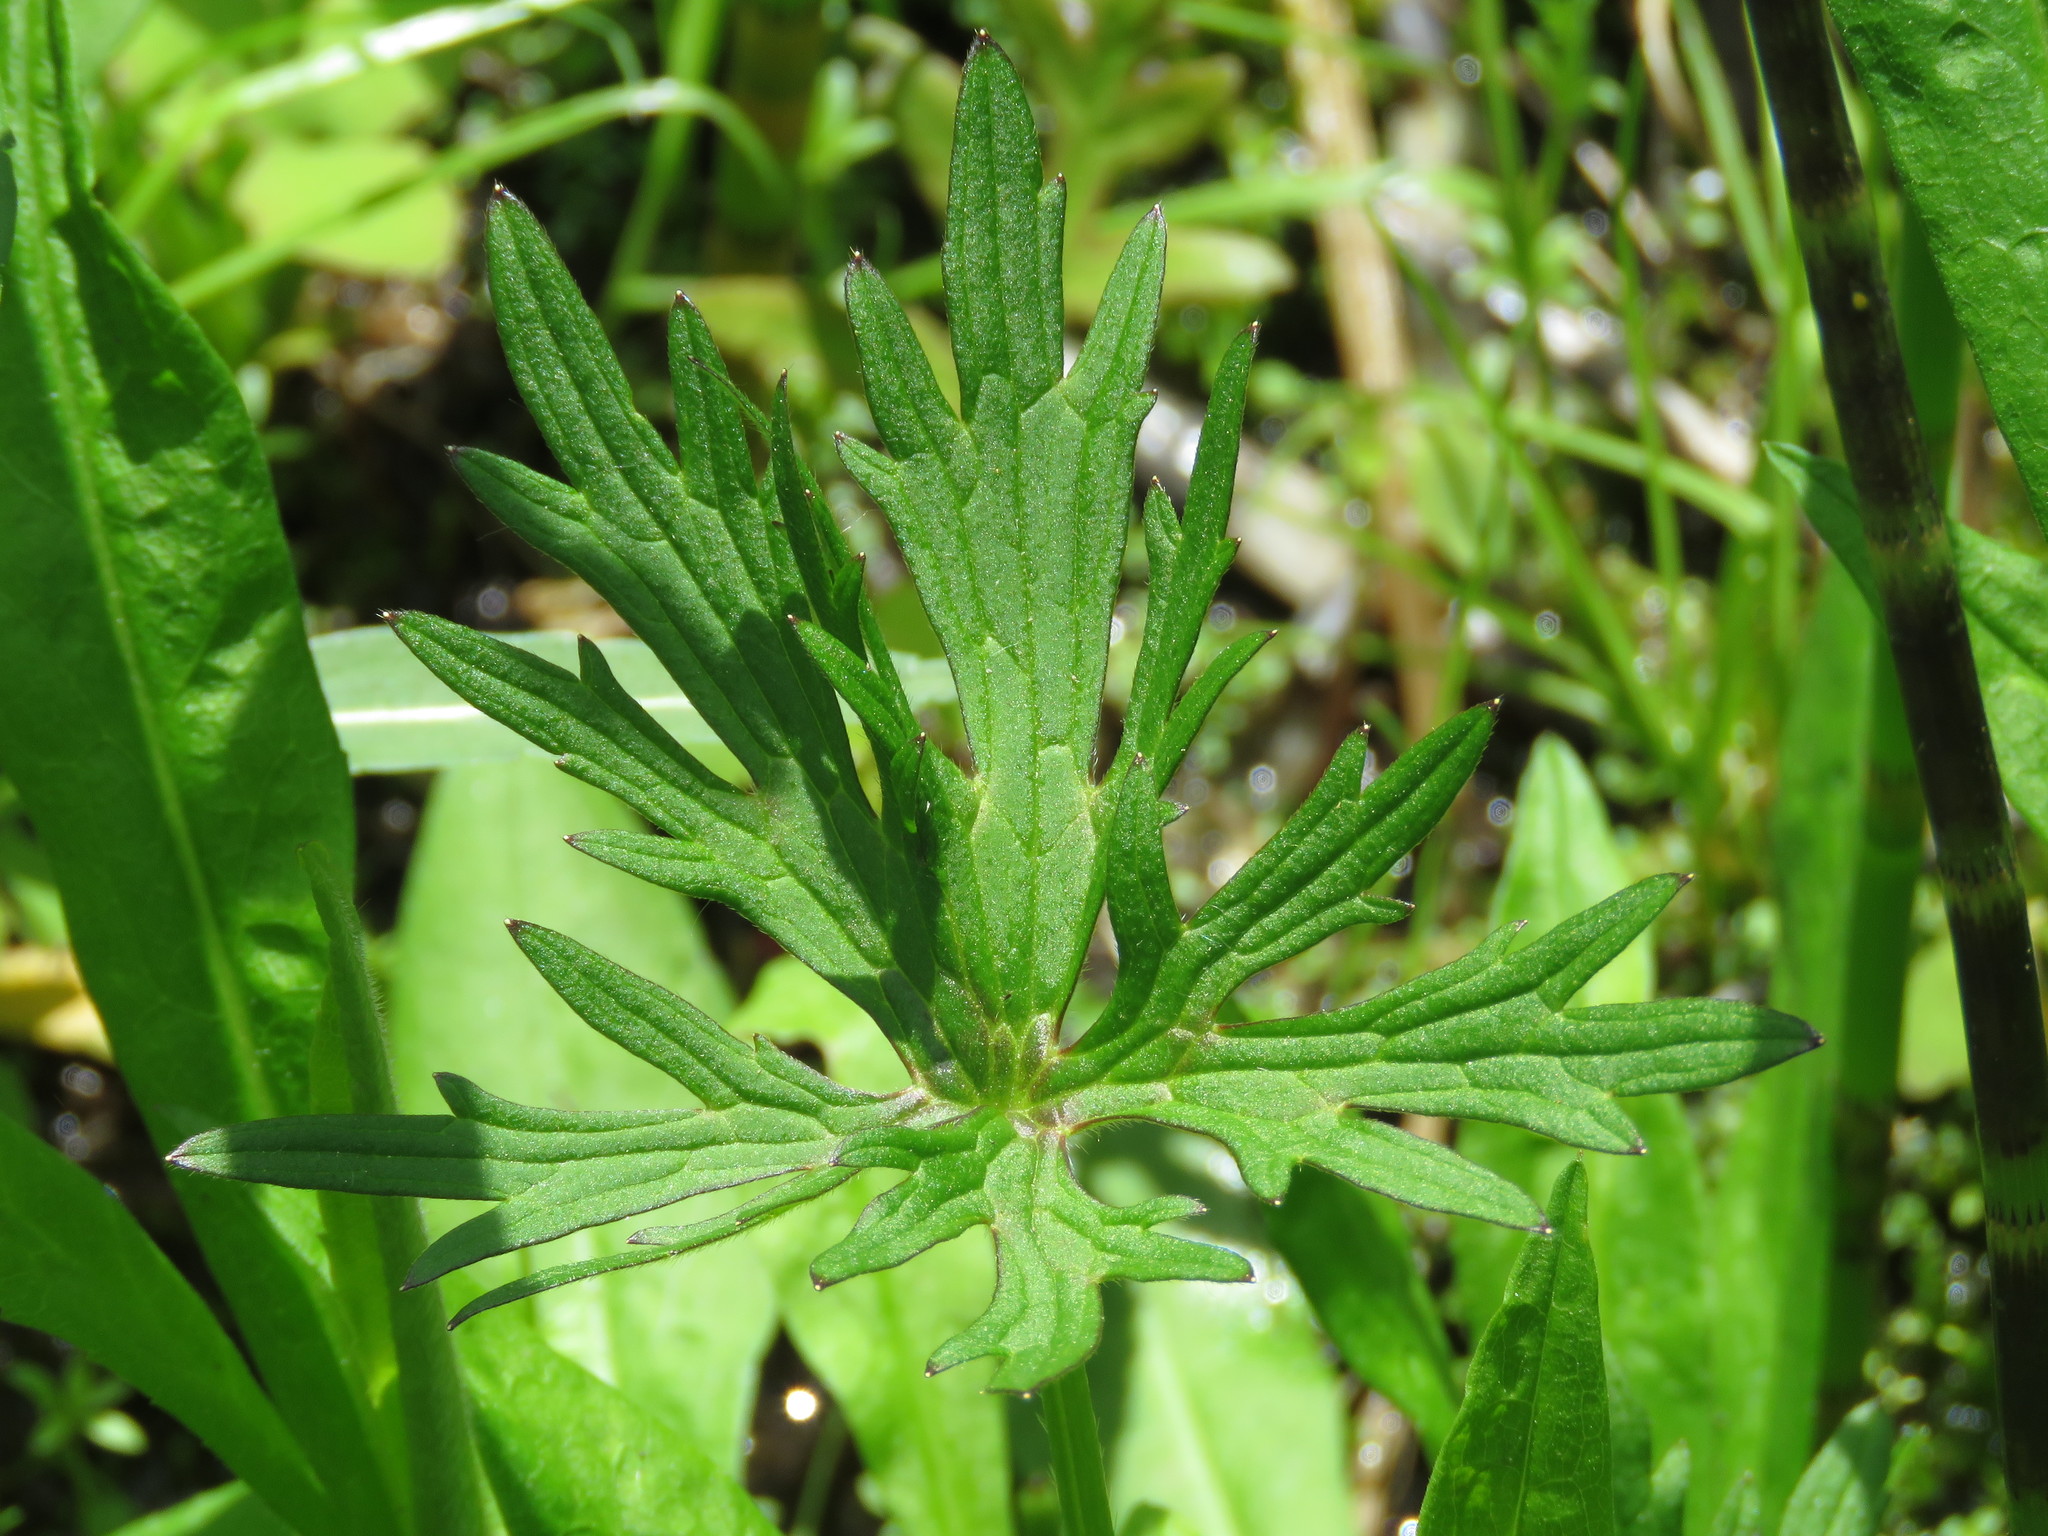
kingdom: Plantae
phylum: Tracheophyta
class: Magnoliopsida
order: Ranunculales
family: Ranunculaceae
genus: Ranunculus
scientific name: Ranunculus acris
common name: Meadow buttercup
